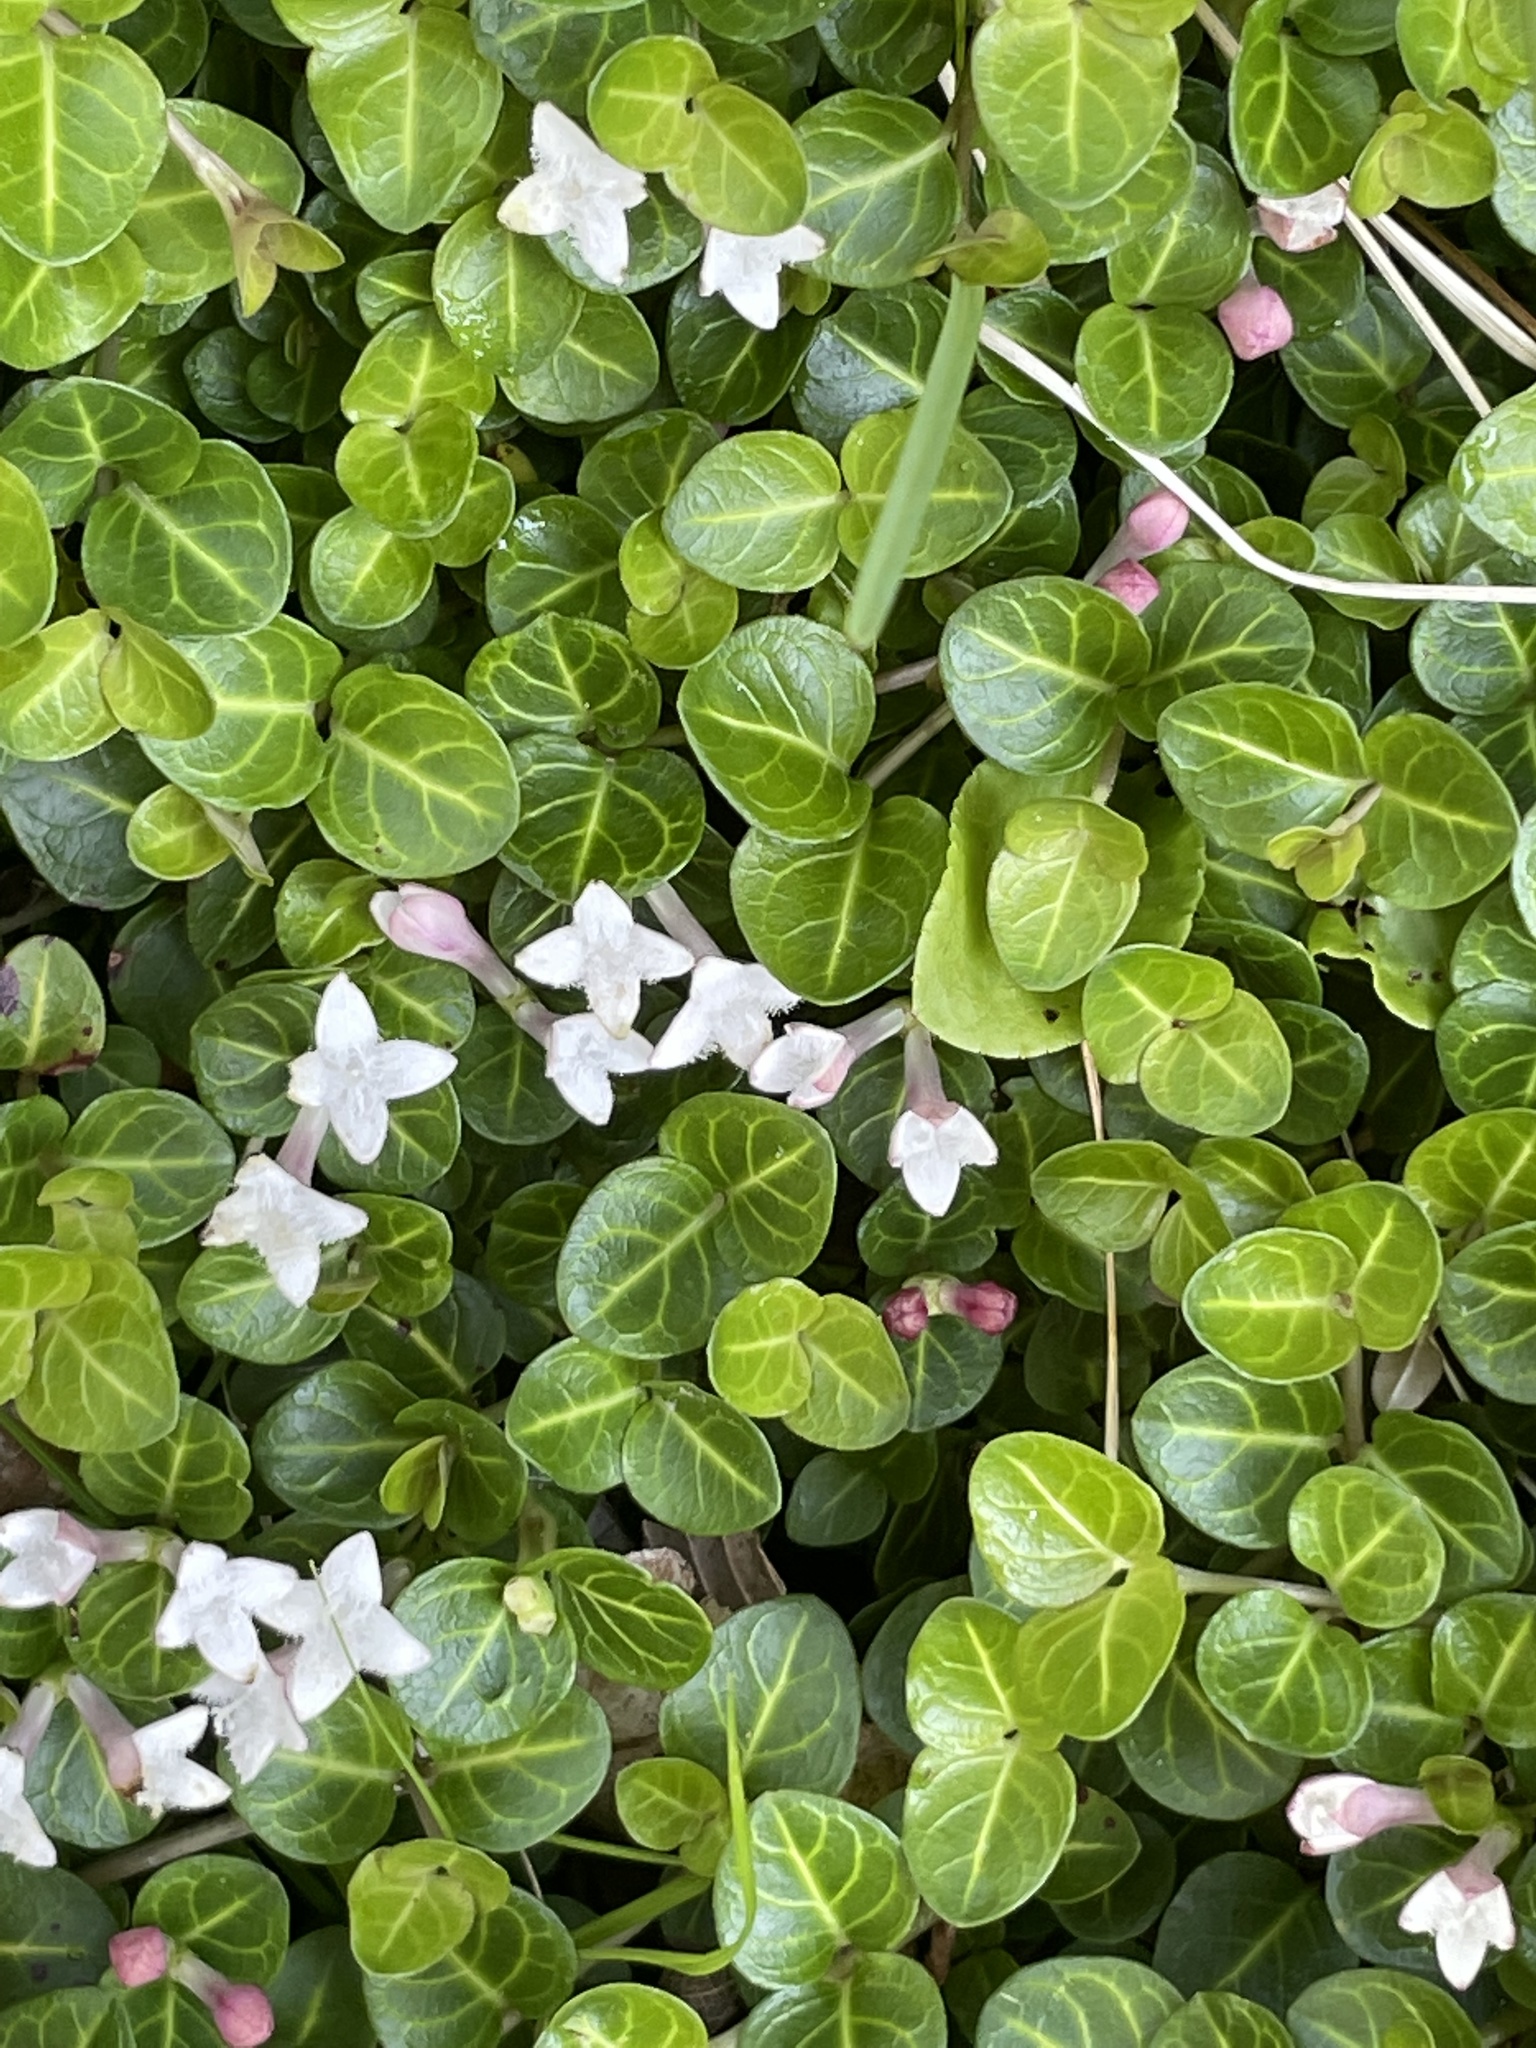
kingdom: Plantae
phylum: Tracheophyta
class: Magnoliopsida
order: Gentianales
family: Rubiaceae
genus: Mitchella
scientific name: Mitchella repens
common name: Partridge-berry
